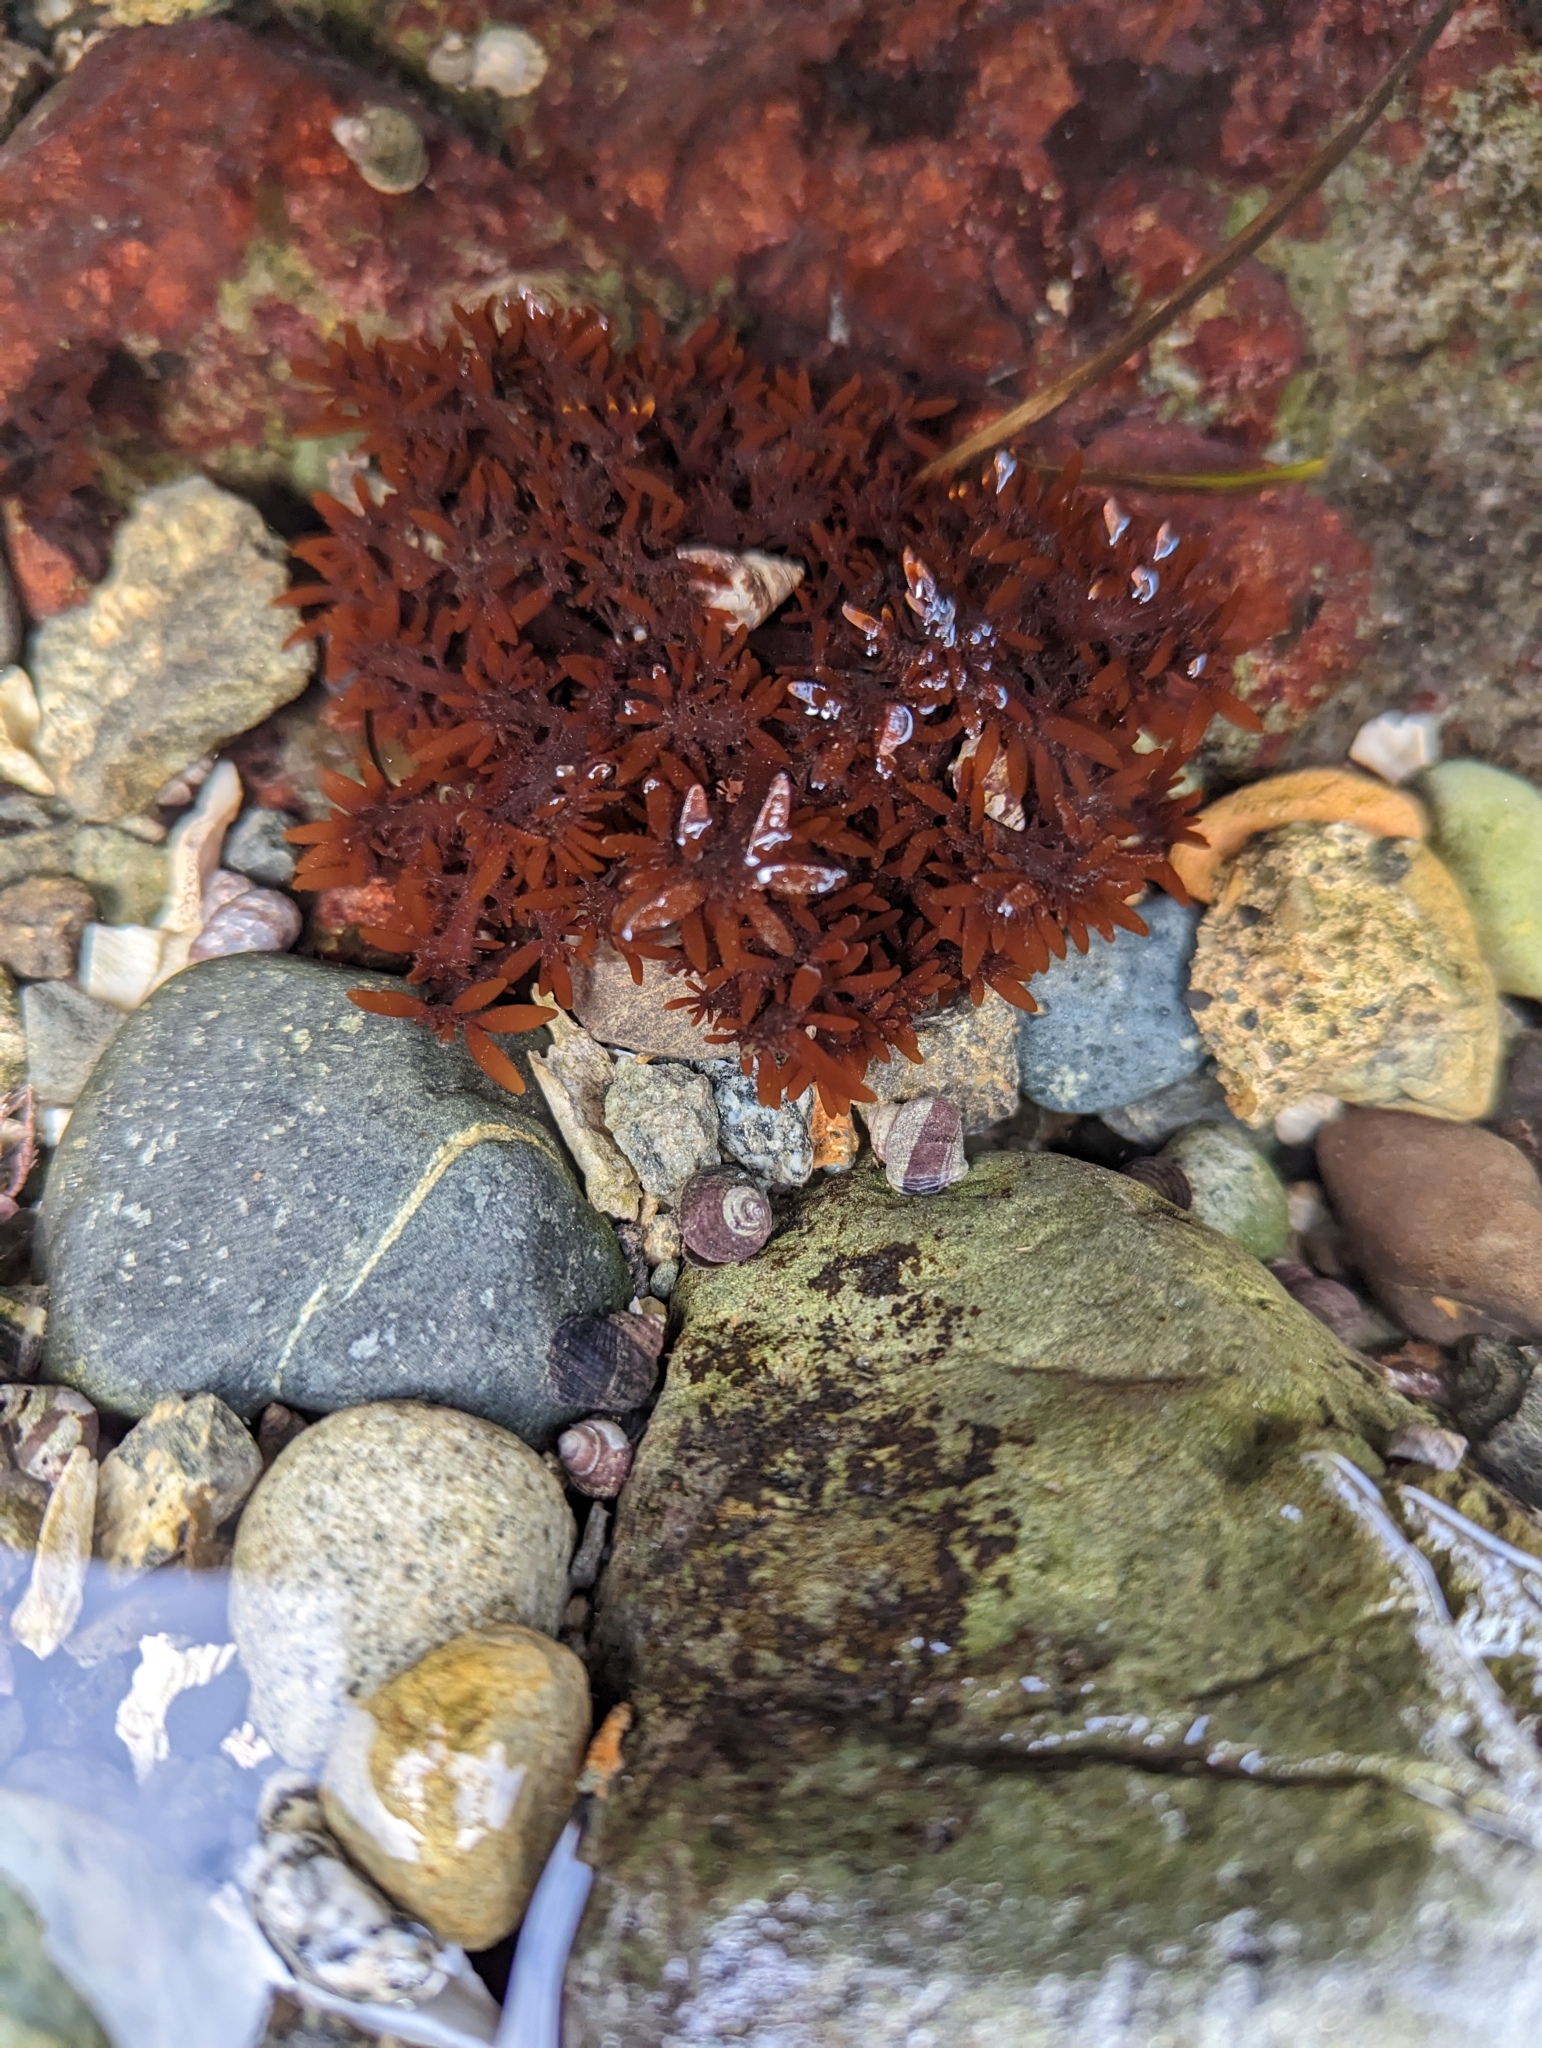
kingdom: Plantae
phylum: Rhodophyta
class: Florideophyceae
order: Halymeniales
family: Halymeniaceae
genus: Grateloupia
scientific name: Grateloupia Prionitis lanceolata
